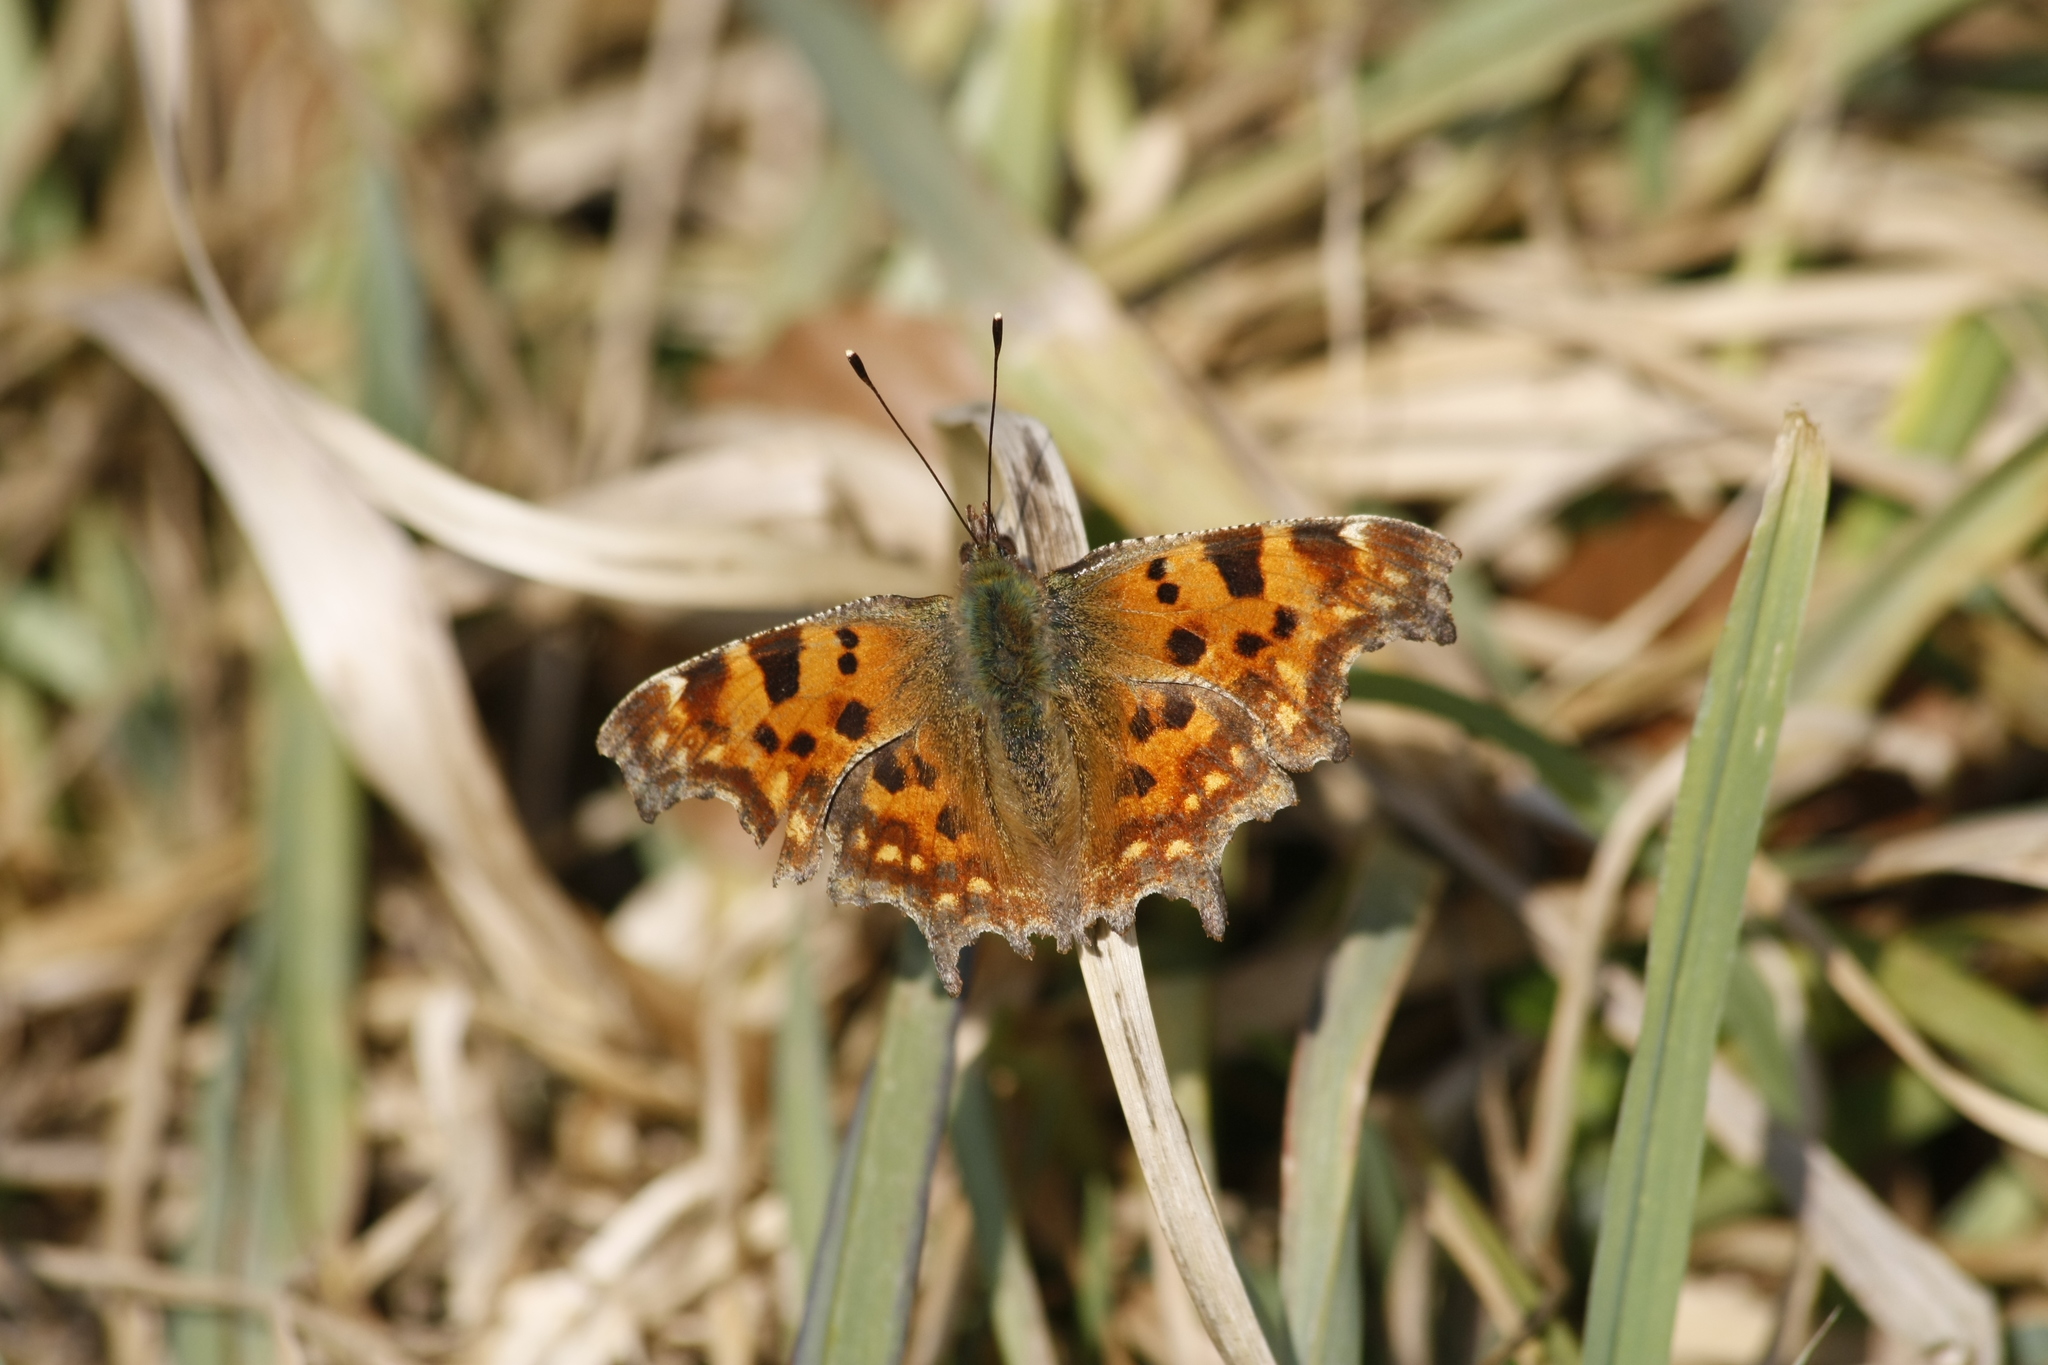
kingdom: Animalia
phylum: Arthropoda
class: Insecta
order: Lepidoptera
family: Nymphalidae
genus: Polygonia
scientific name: Polygonia c-album
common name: Comma
